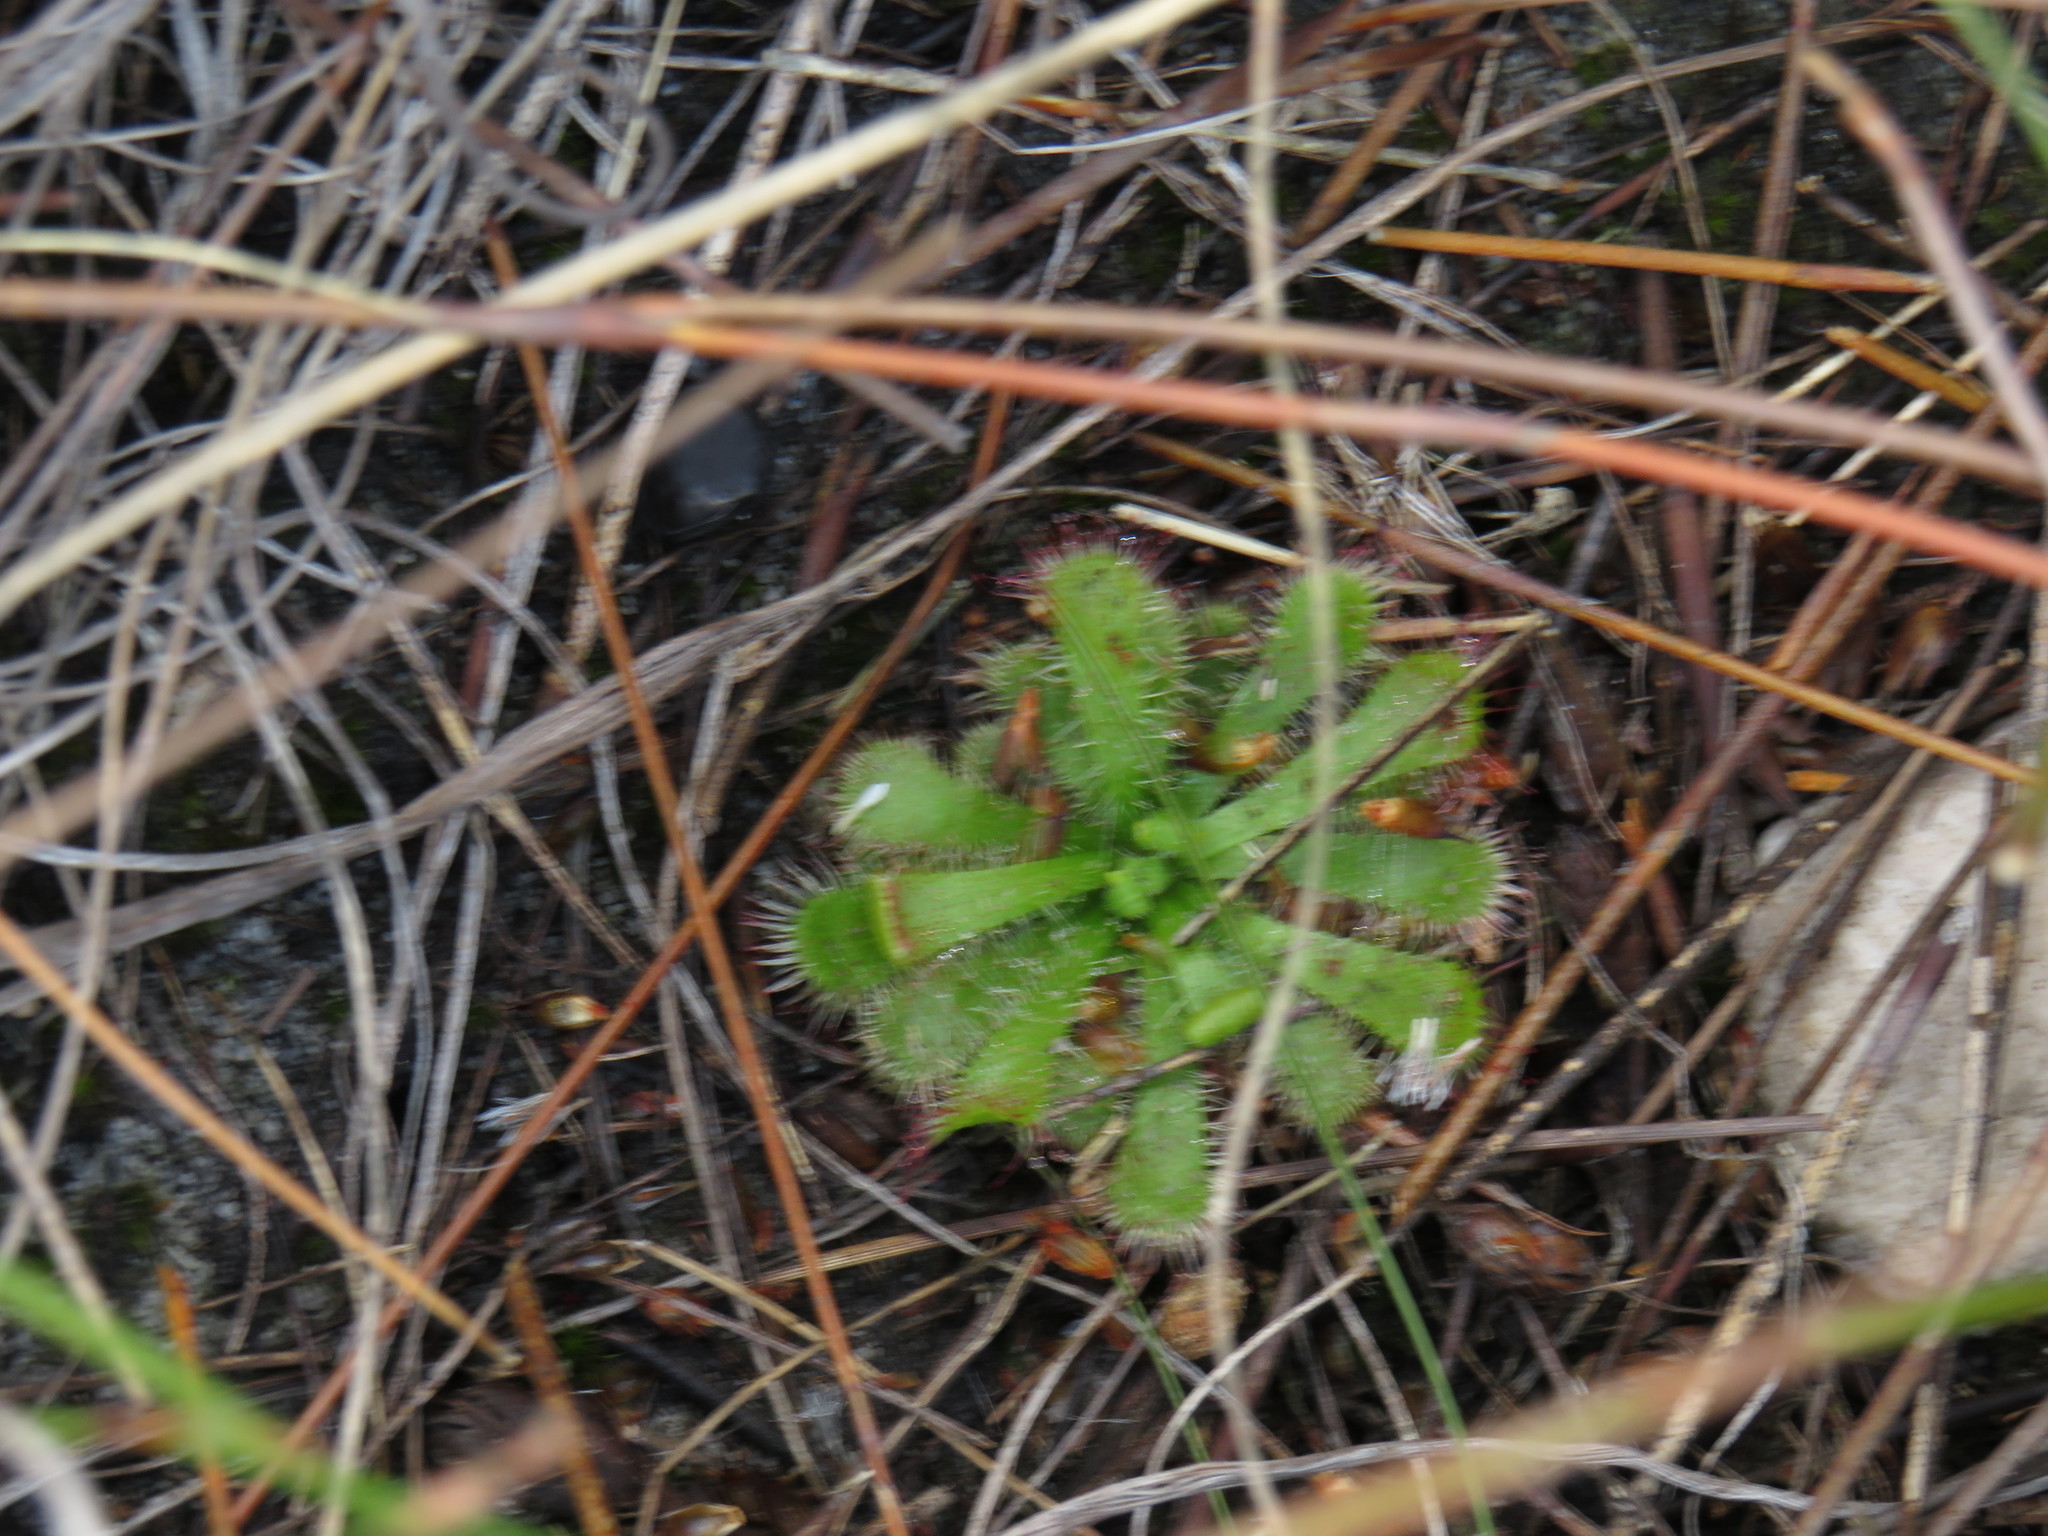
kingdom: Plantae
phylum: Tracheophyta
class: Magnoliopsida
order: Caryophyllales
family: Droseraceae
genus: Drosera
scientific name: Drosera aliciae
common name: Alice sundew
